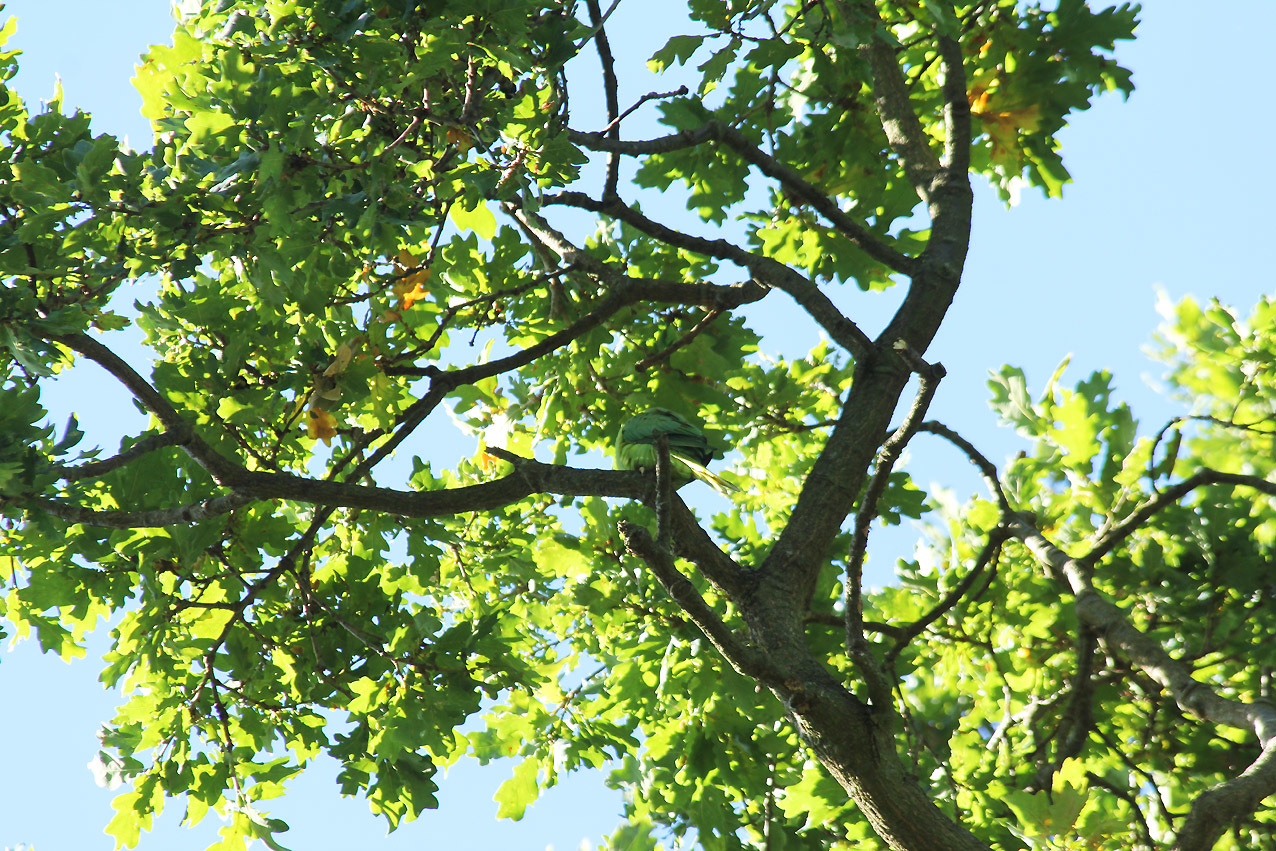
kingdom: Animalia
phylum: Chordata
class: Aves
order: Psittaciformes
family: Psittacidae
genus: Psittacula
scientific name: Psittacula krameri
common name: Rose-ringed parakeet
